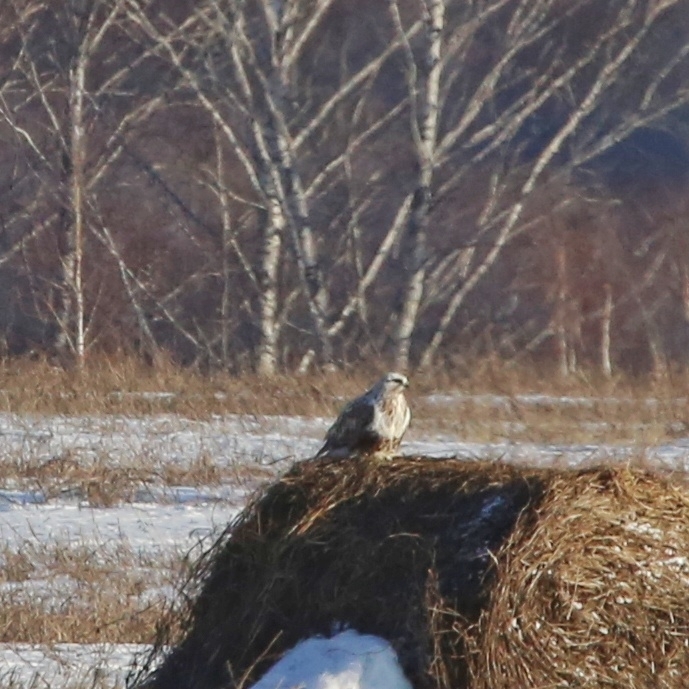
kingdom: Animalia
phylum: Chordata
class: Aves
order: Accipitriformes
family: Accipitridae
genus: Buteo
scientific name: Buteo lagopus
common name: Rough-legged buzzard
